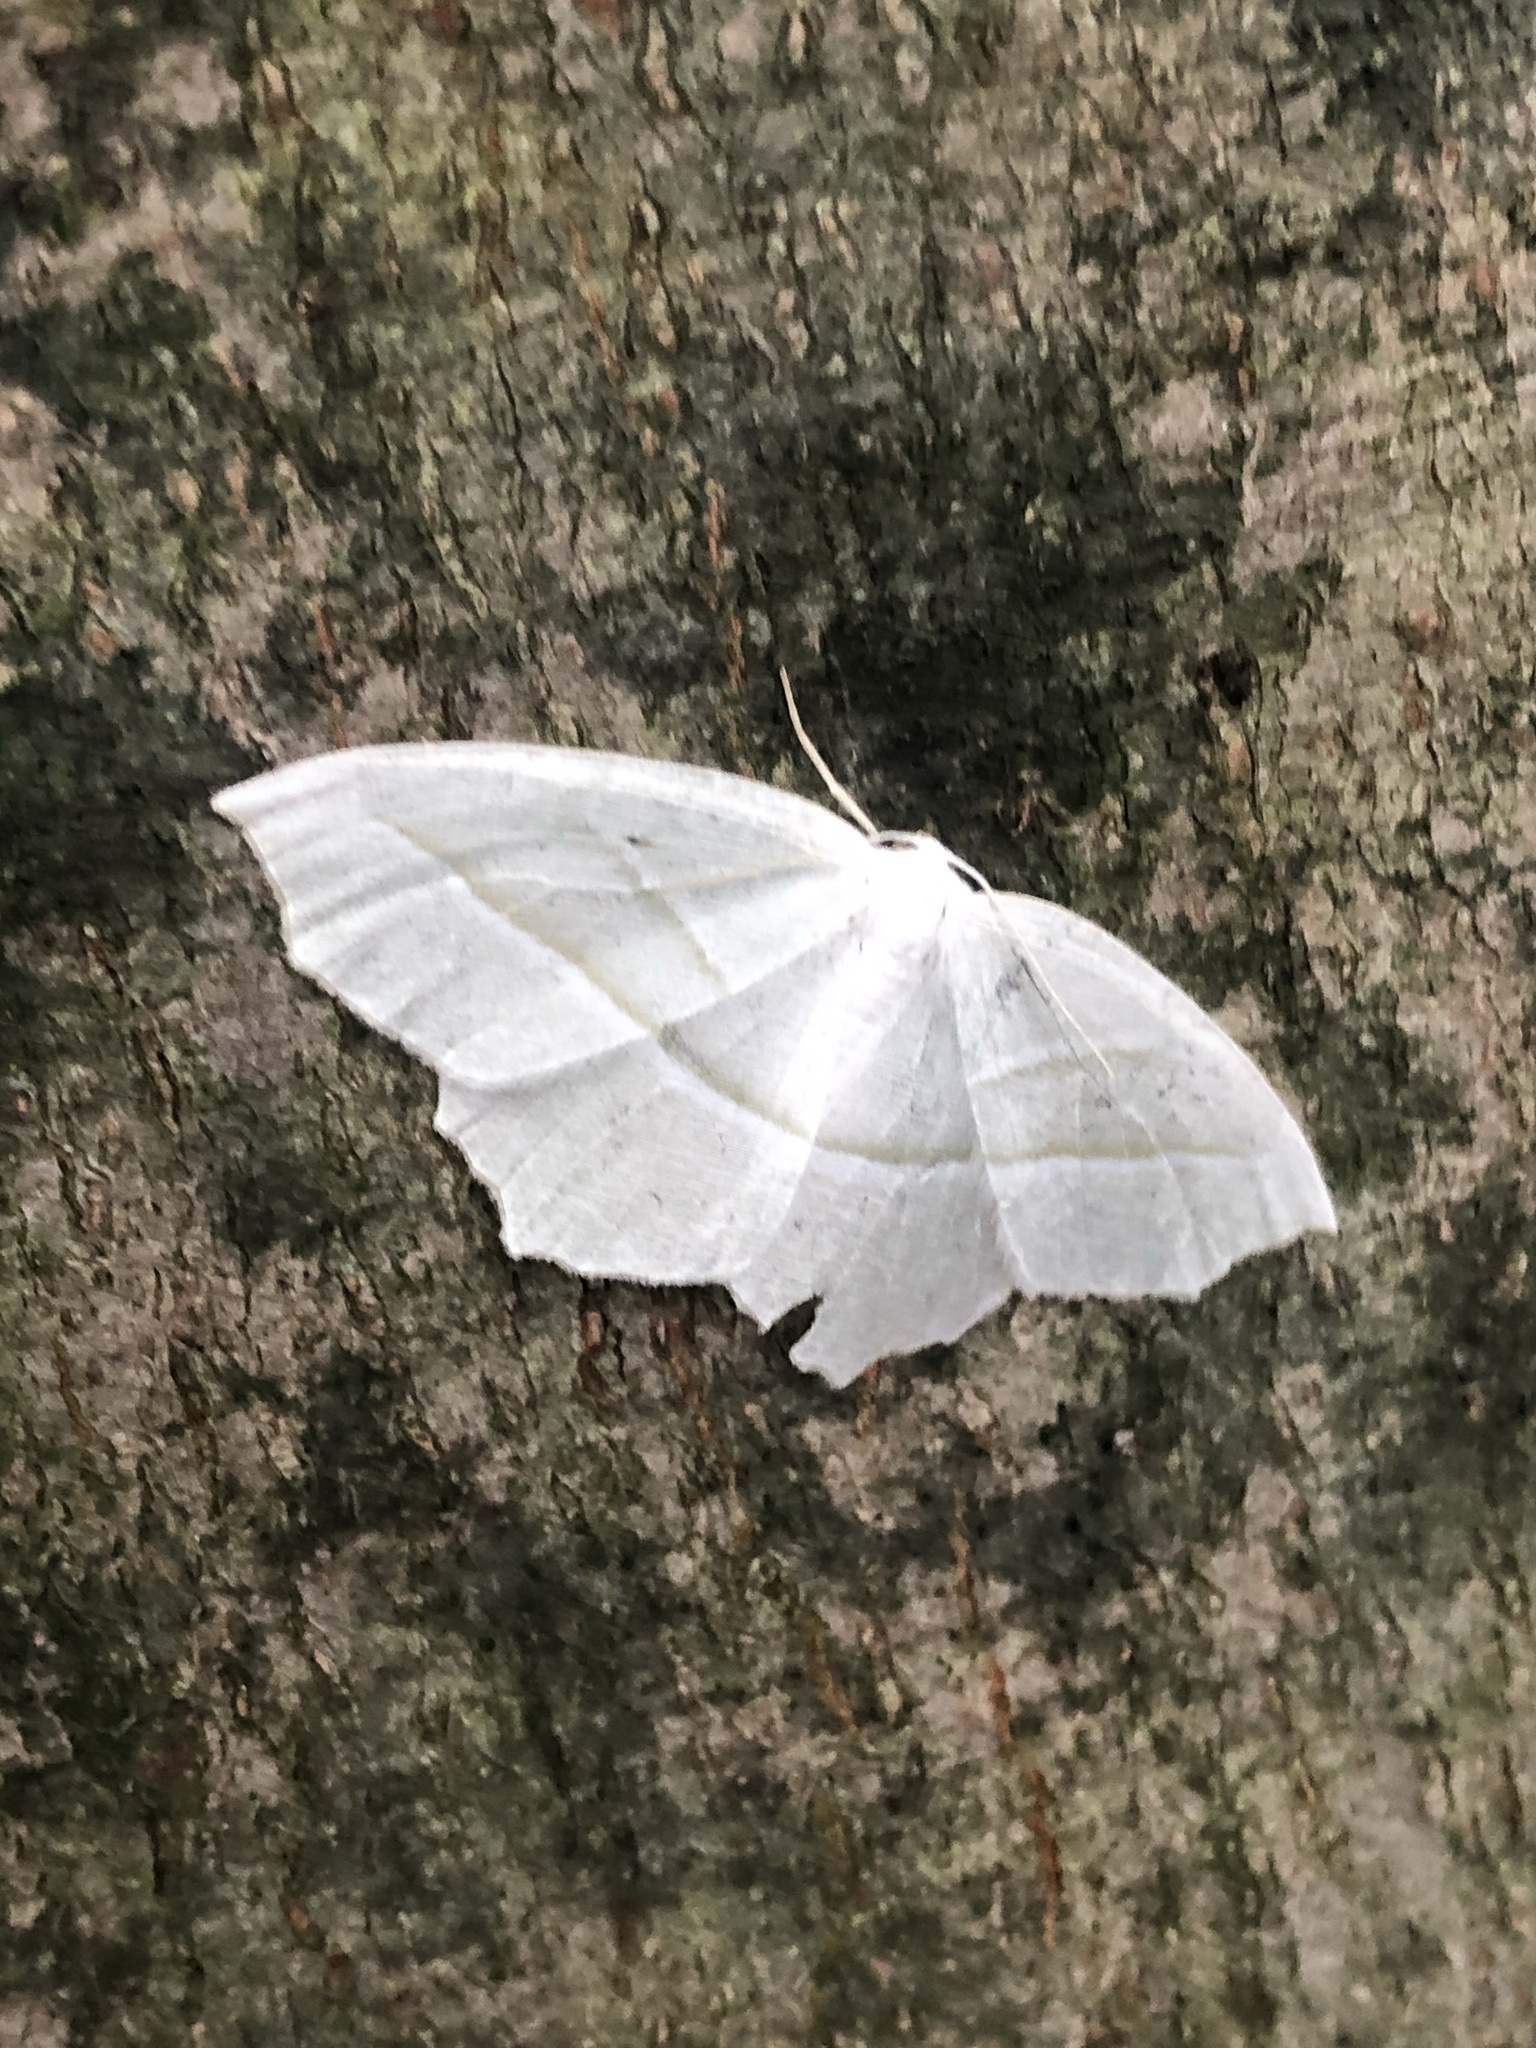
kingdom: Animalia
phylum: Arthropoda
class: Insecta
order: Lepidoptera
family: Geometridae
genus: Campaea
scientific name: Campaea perlata
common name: Fringed looper
